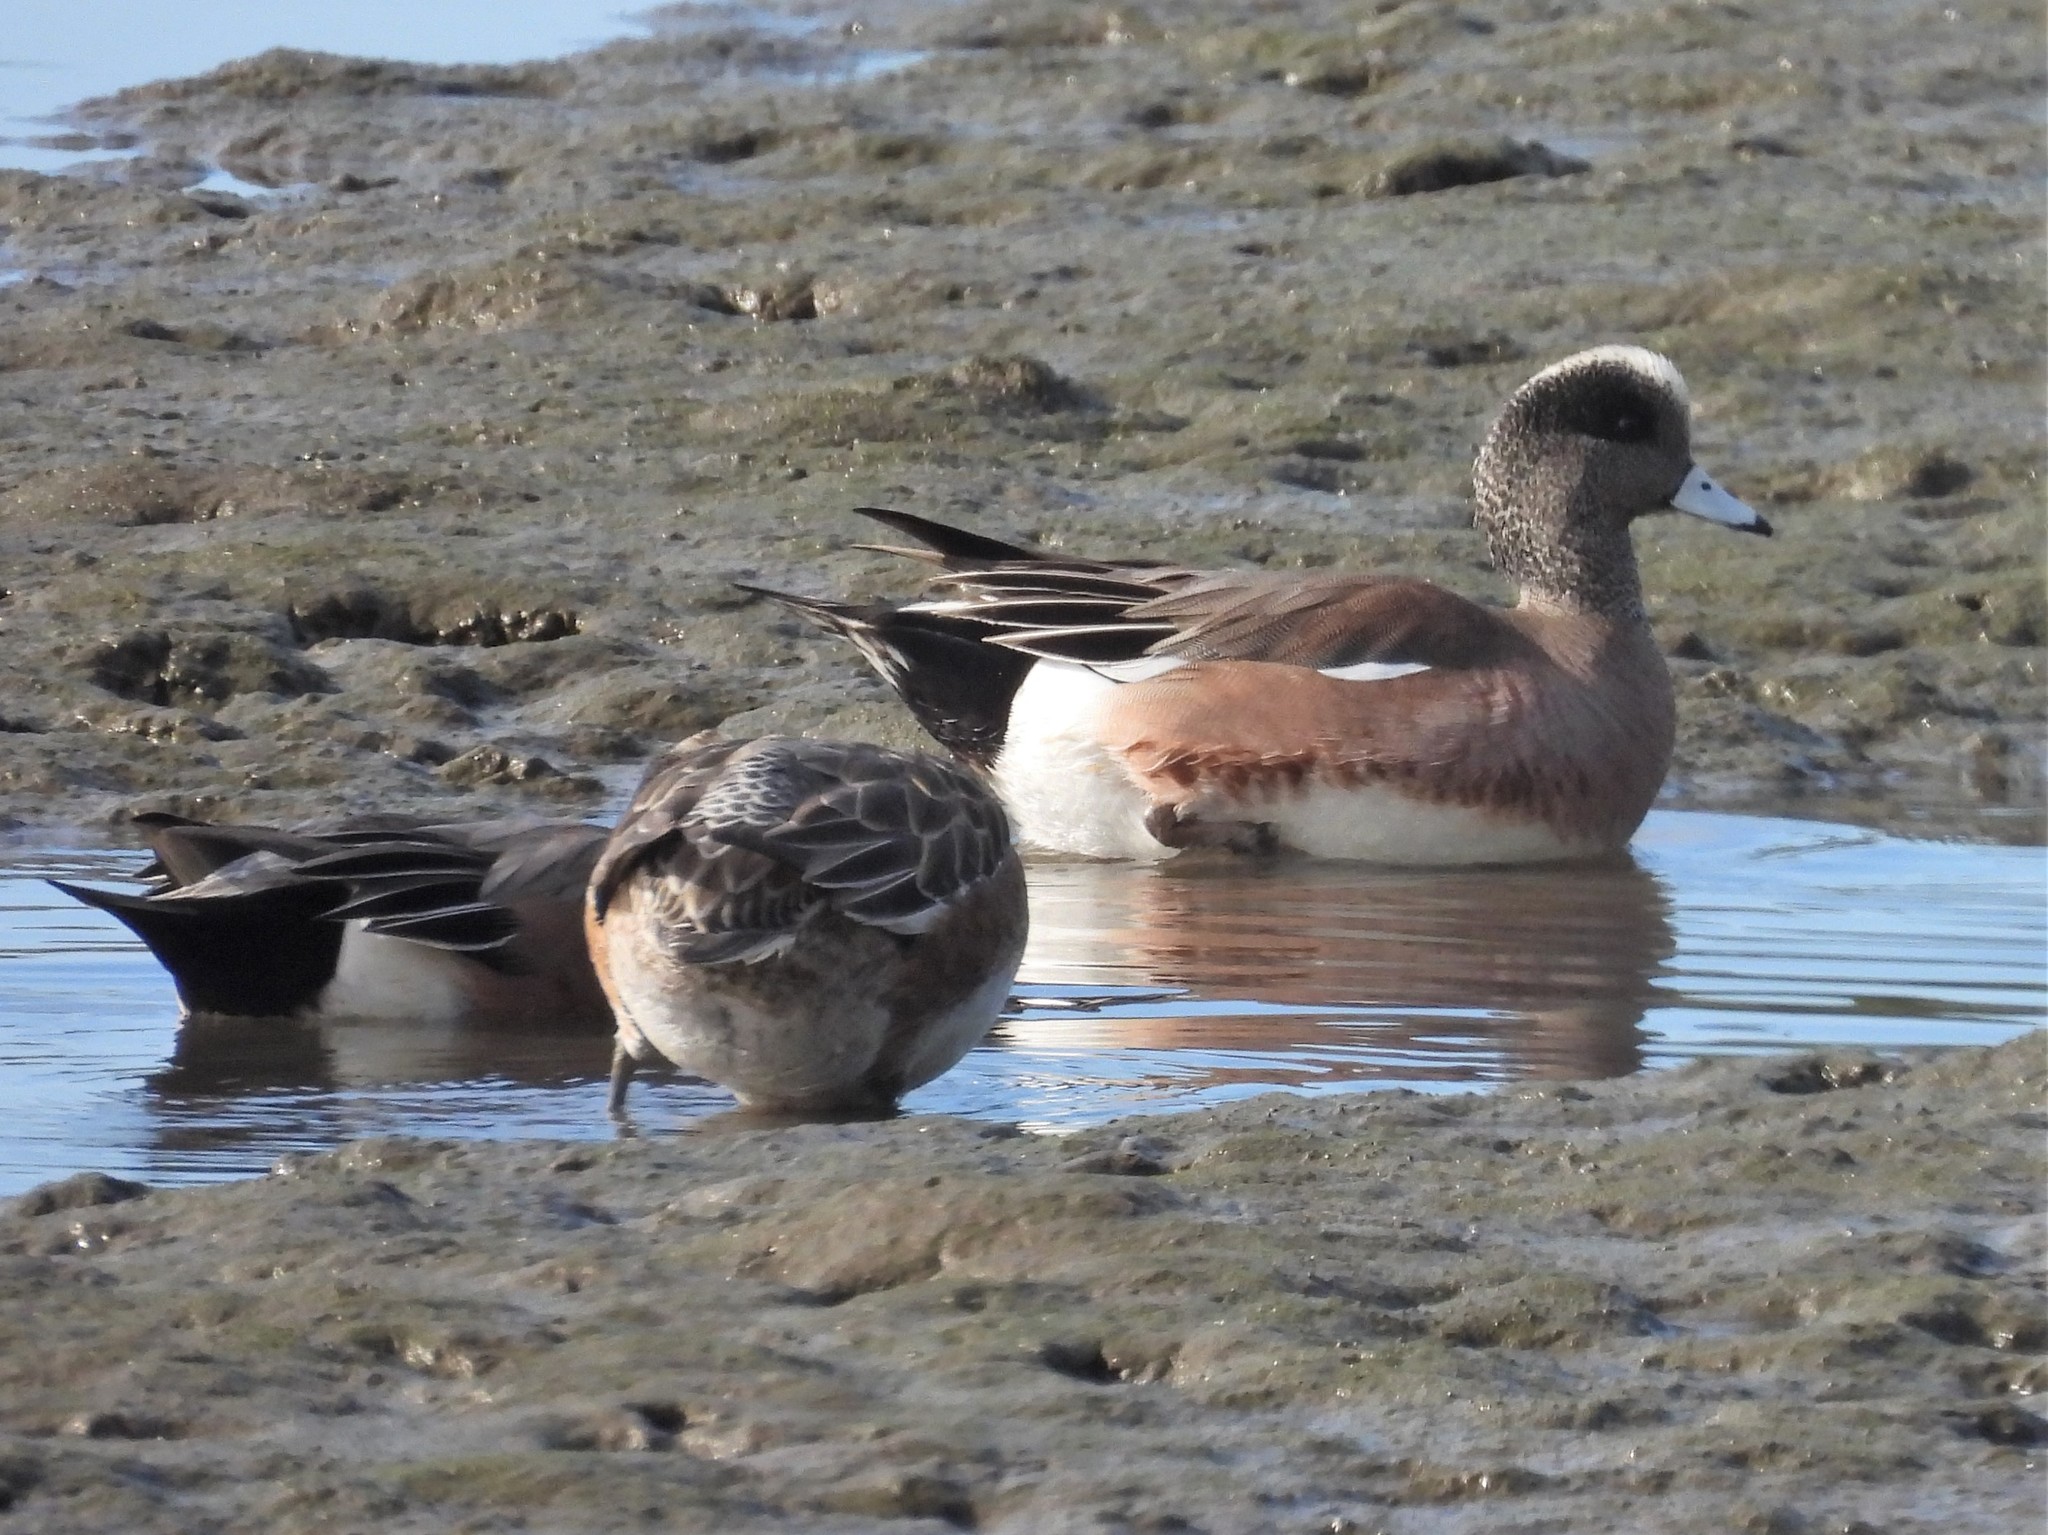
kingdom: Animalia
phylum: Chordata
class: Aves
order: Anseriformes
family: Anatidae
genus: Mareca
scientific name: Mareca americana
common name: American wigeon
